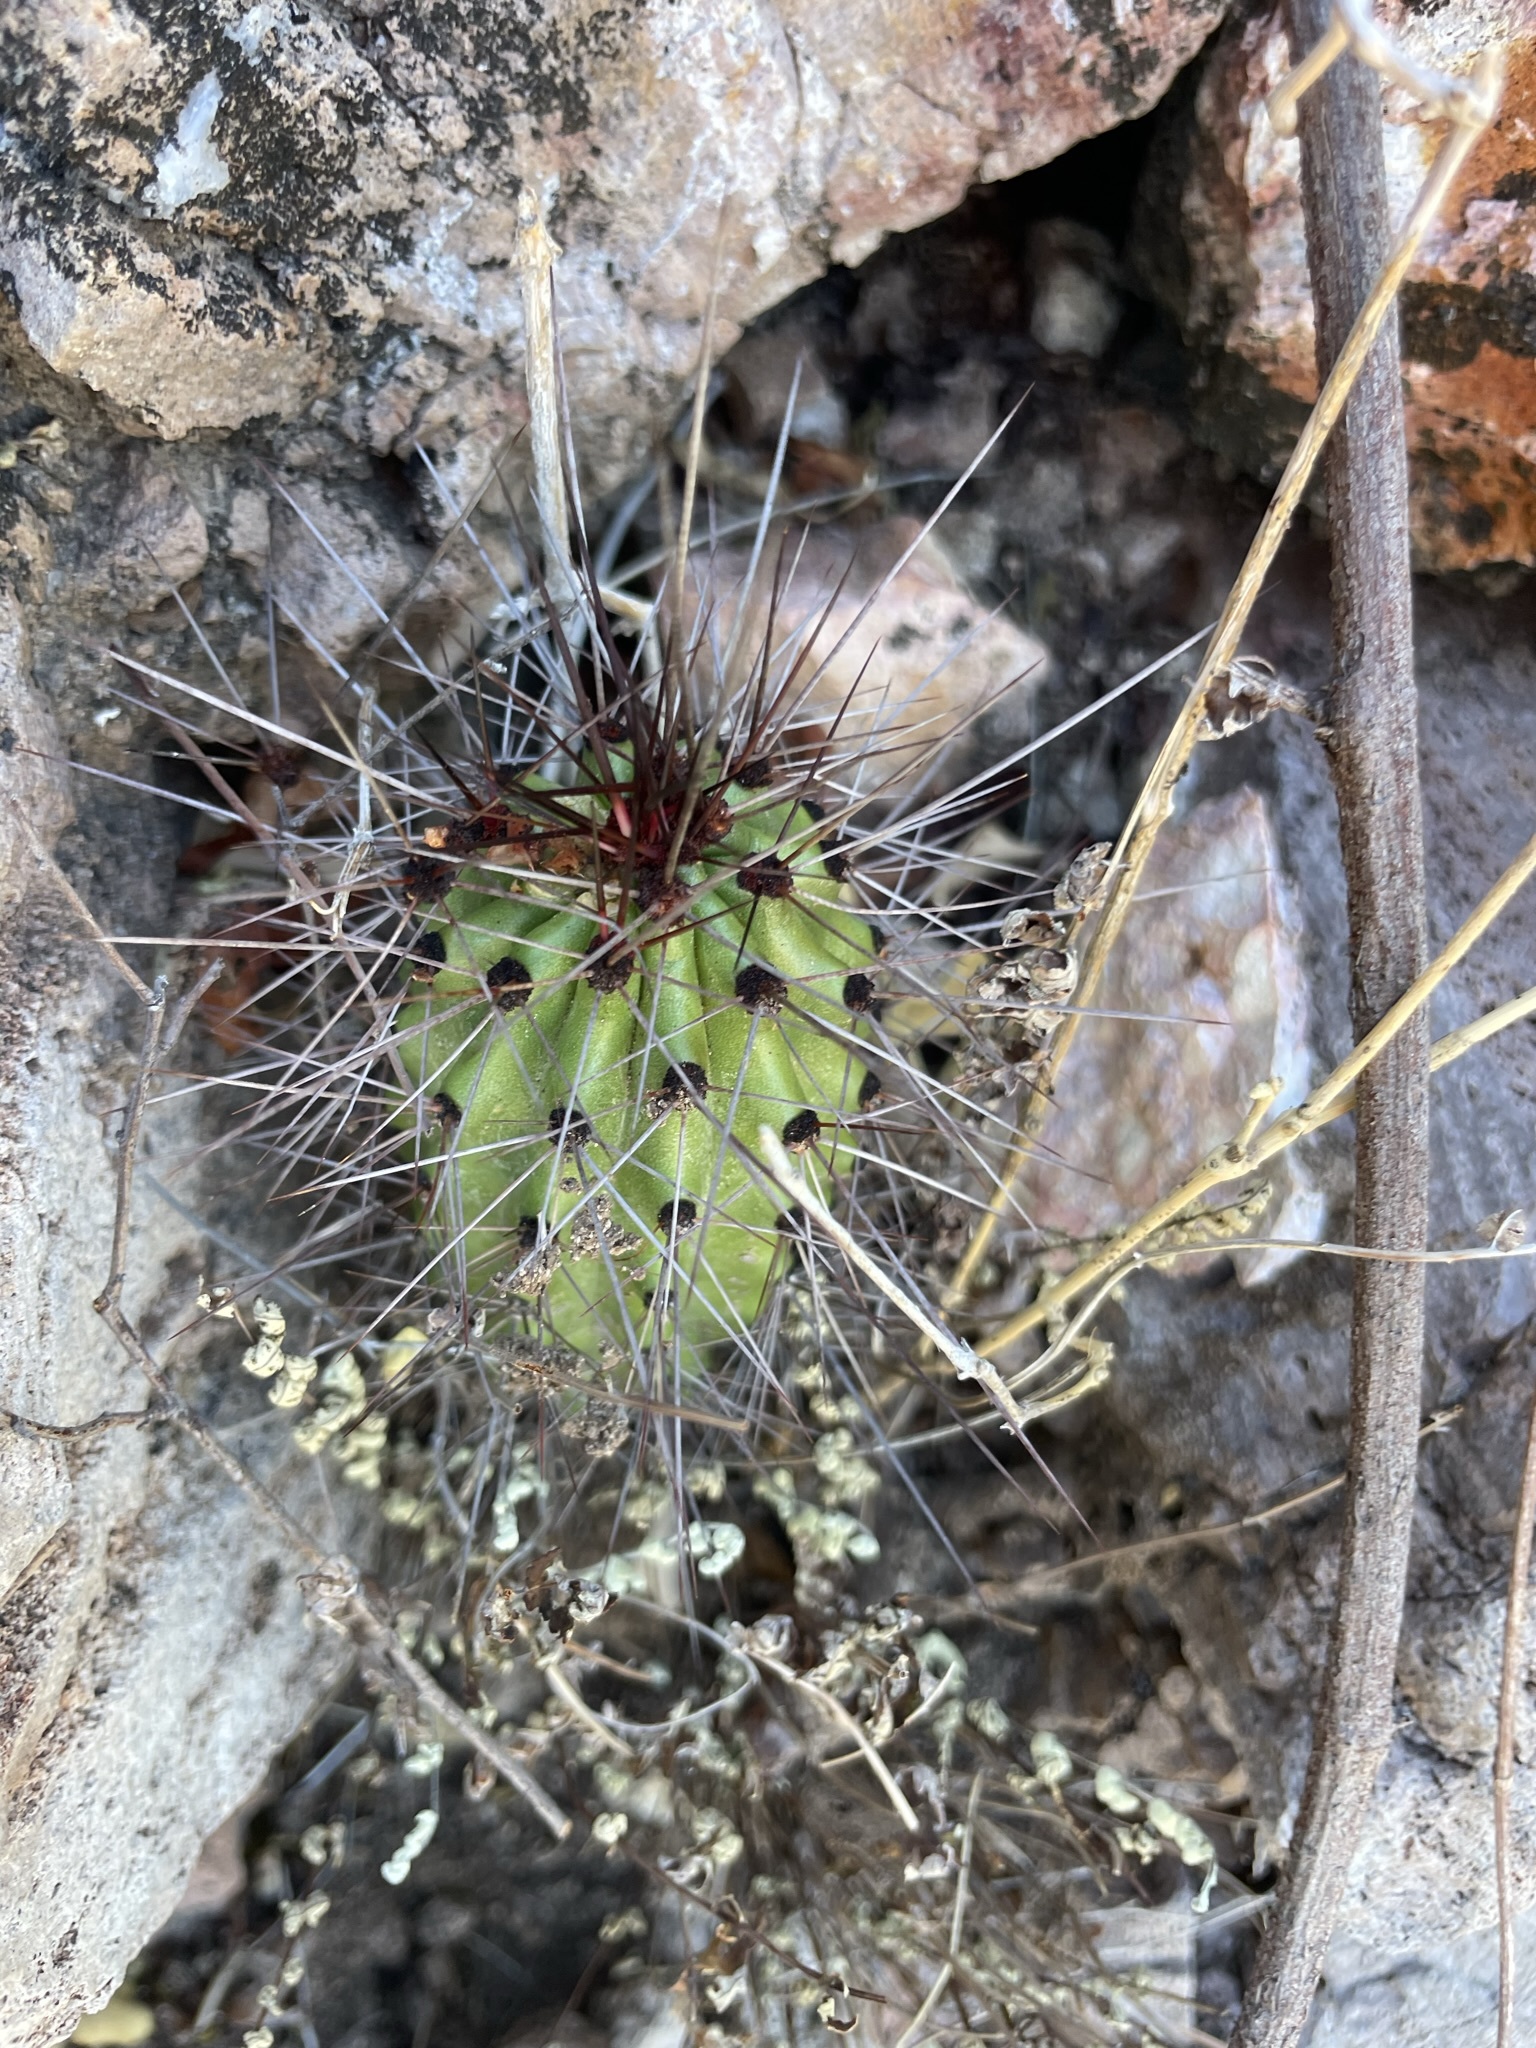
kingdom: Plantae
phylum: Tracheophyta
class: Magnoliopsida
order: Caryophyllales
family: Cactaceae
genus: Stenocereus
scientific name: Stenocereus thurberi
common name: Organ pipe cactus
